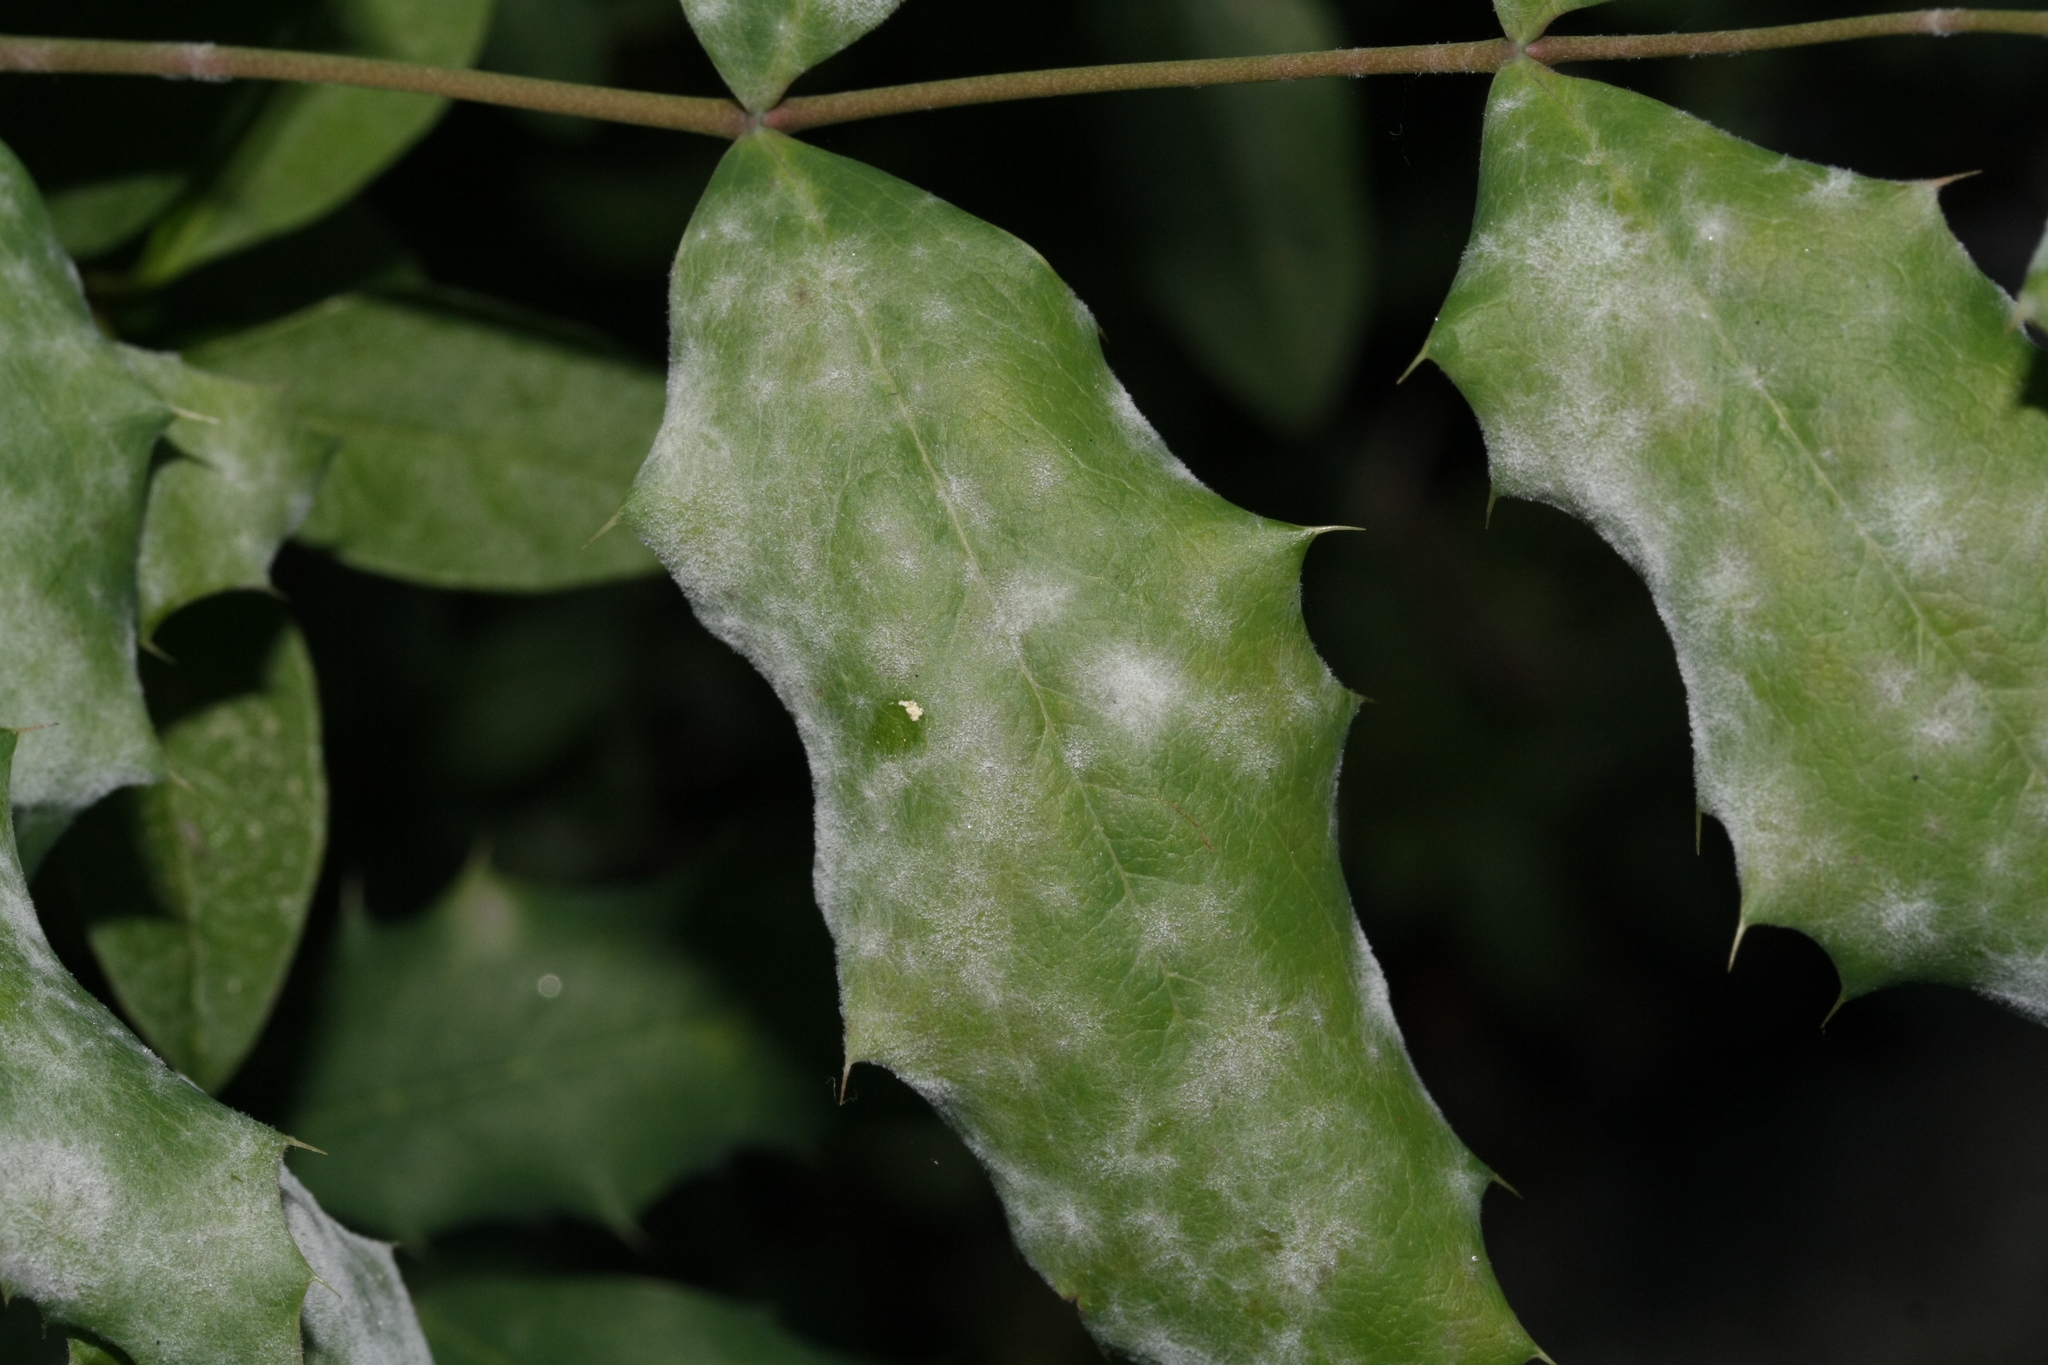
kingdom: Fungi
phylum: Ascomycota
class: Leotiomycetes
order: Helotiales
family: Erysiphaceae
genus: Erysiphe
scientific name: Erysiphe berberidis
